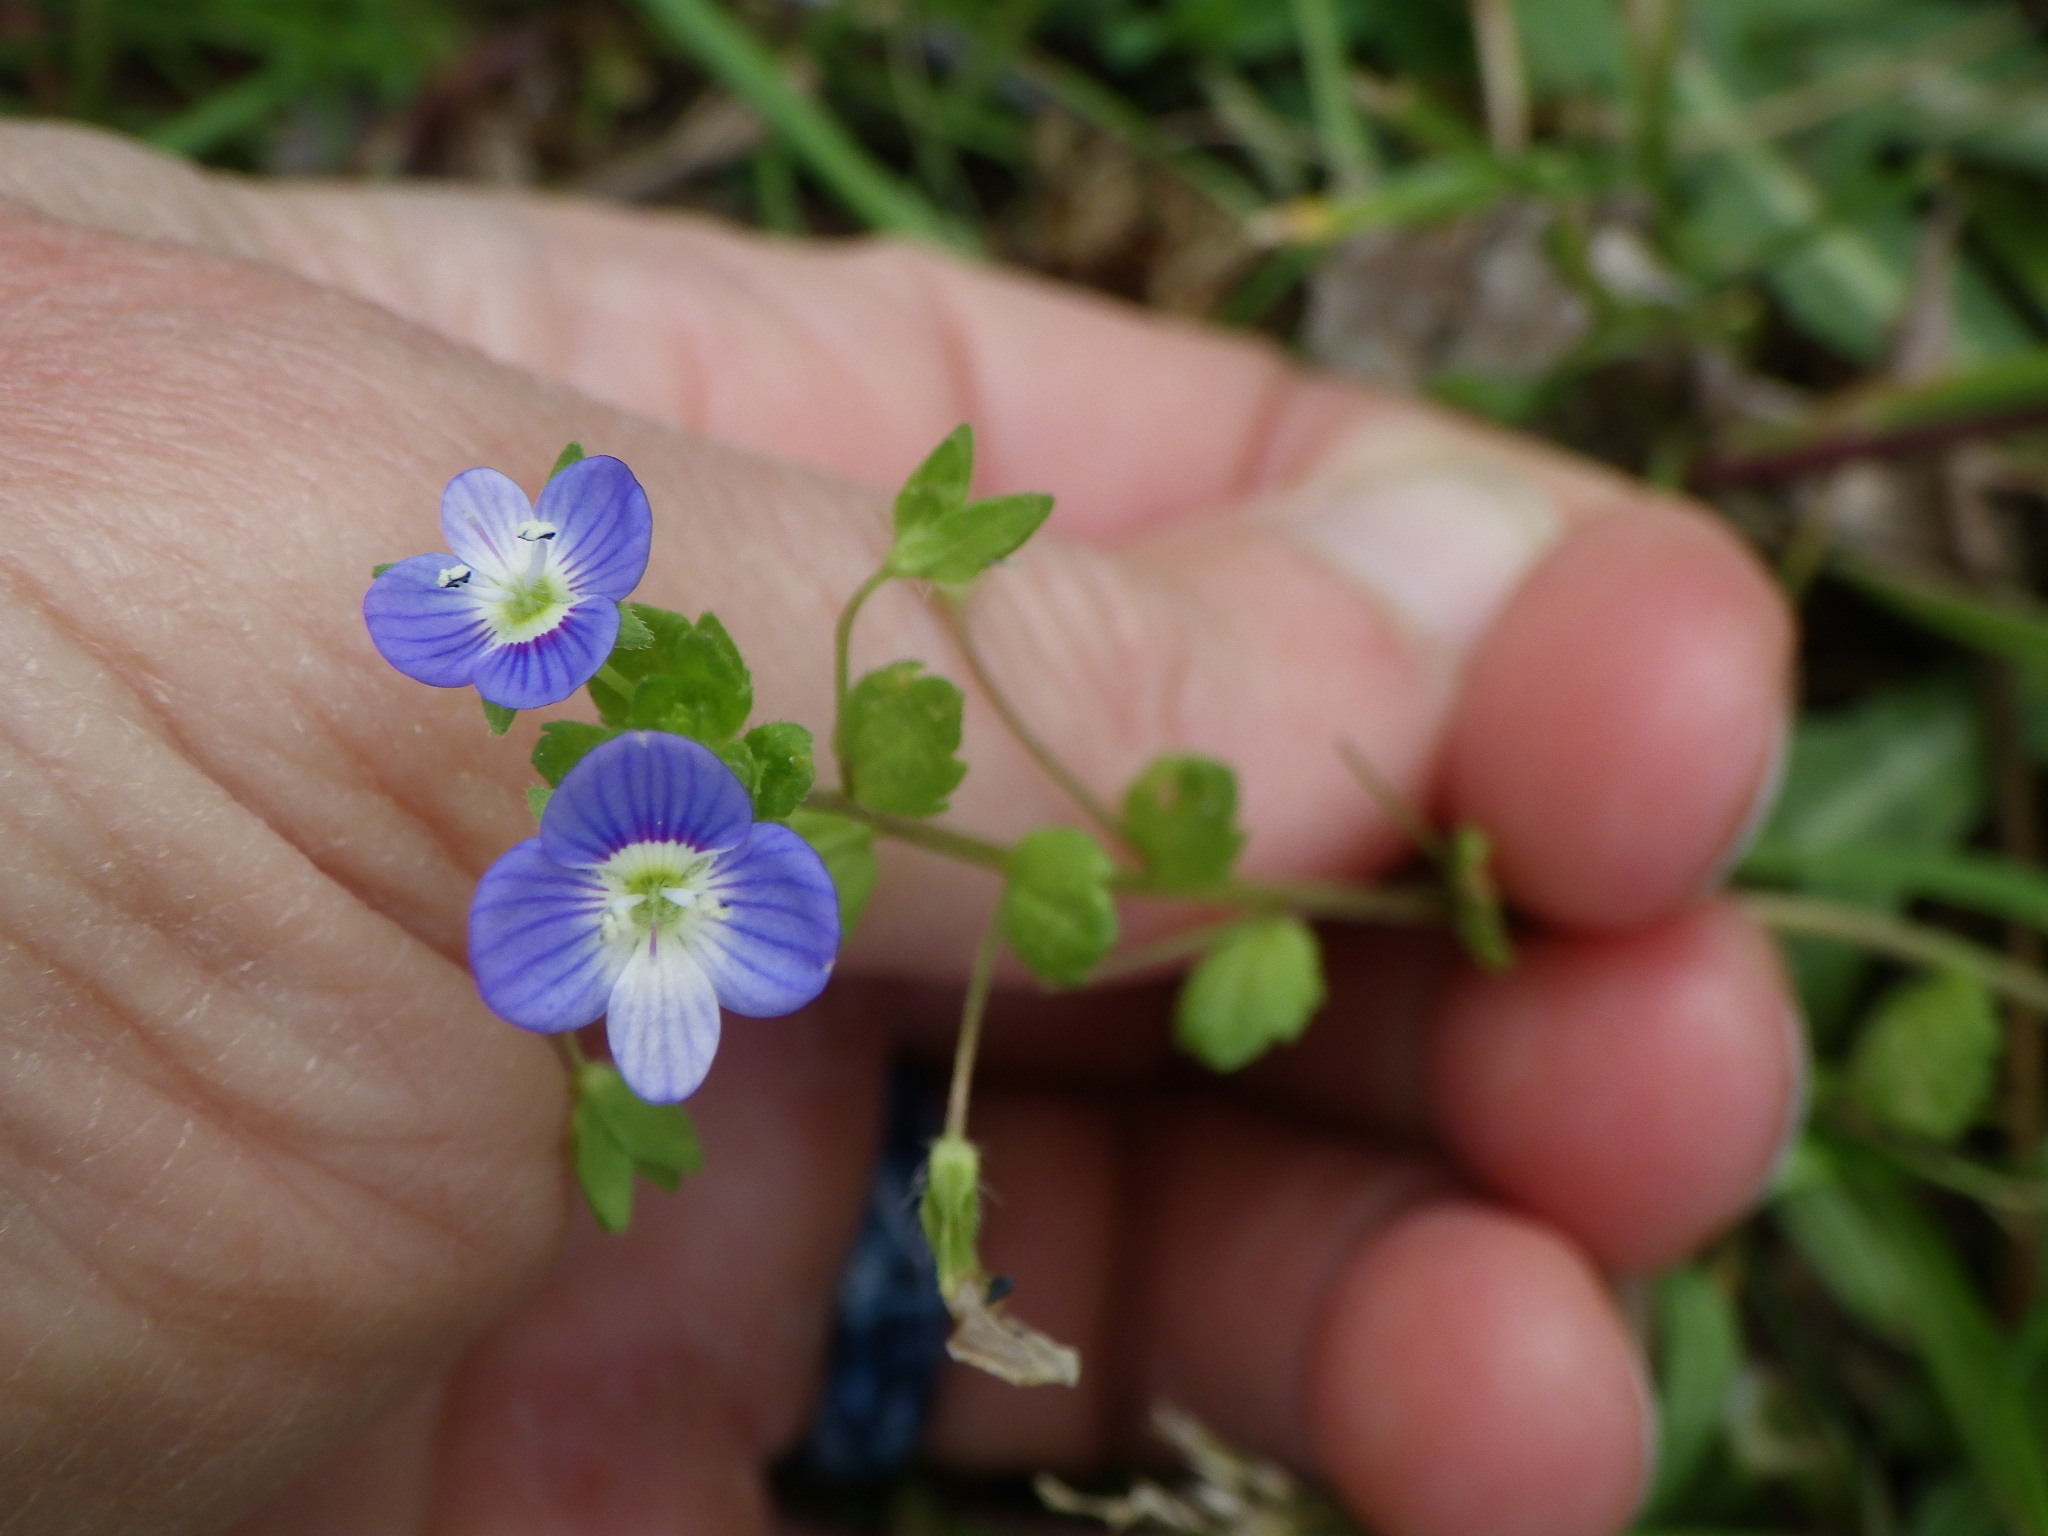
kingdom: Plantae
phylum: Tracheophyta
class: Magnoliopsida
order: Lamiales
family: Plantaginaceae
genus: Veronica
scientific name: Veronica persica
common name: Common field-speedwell
